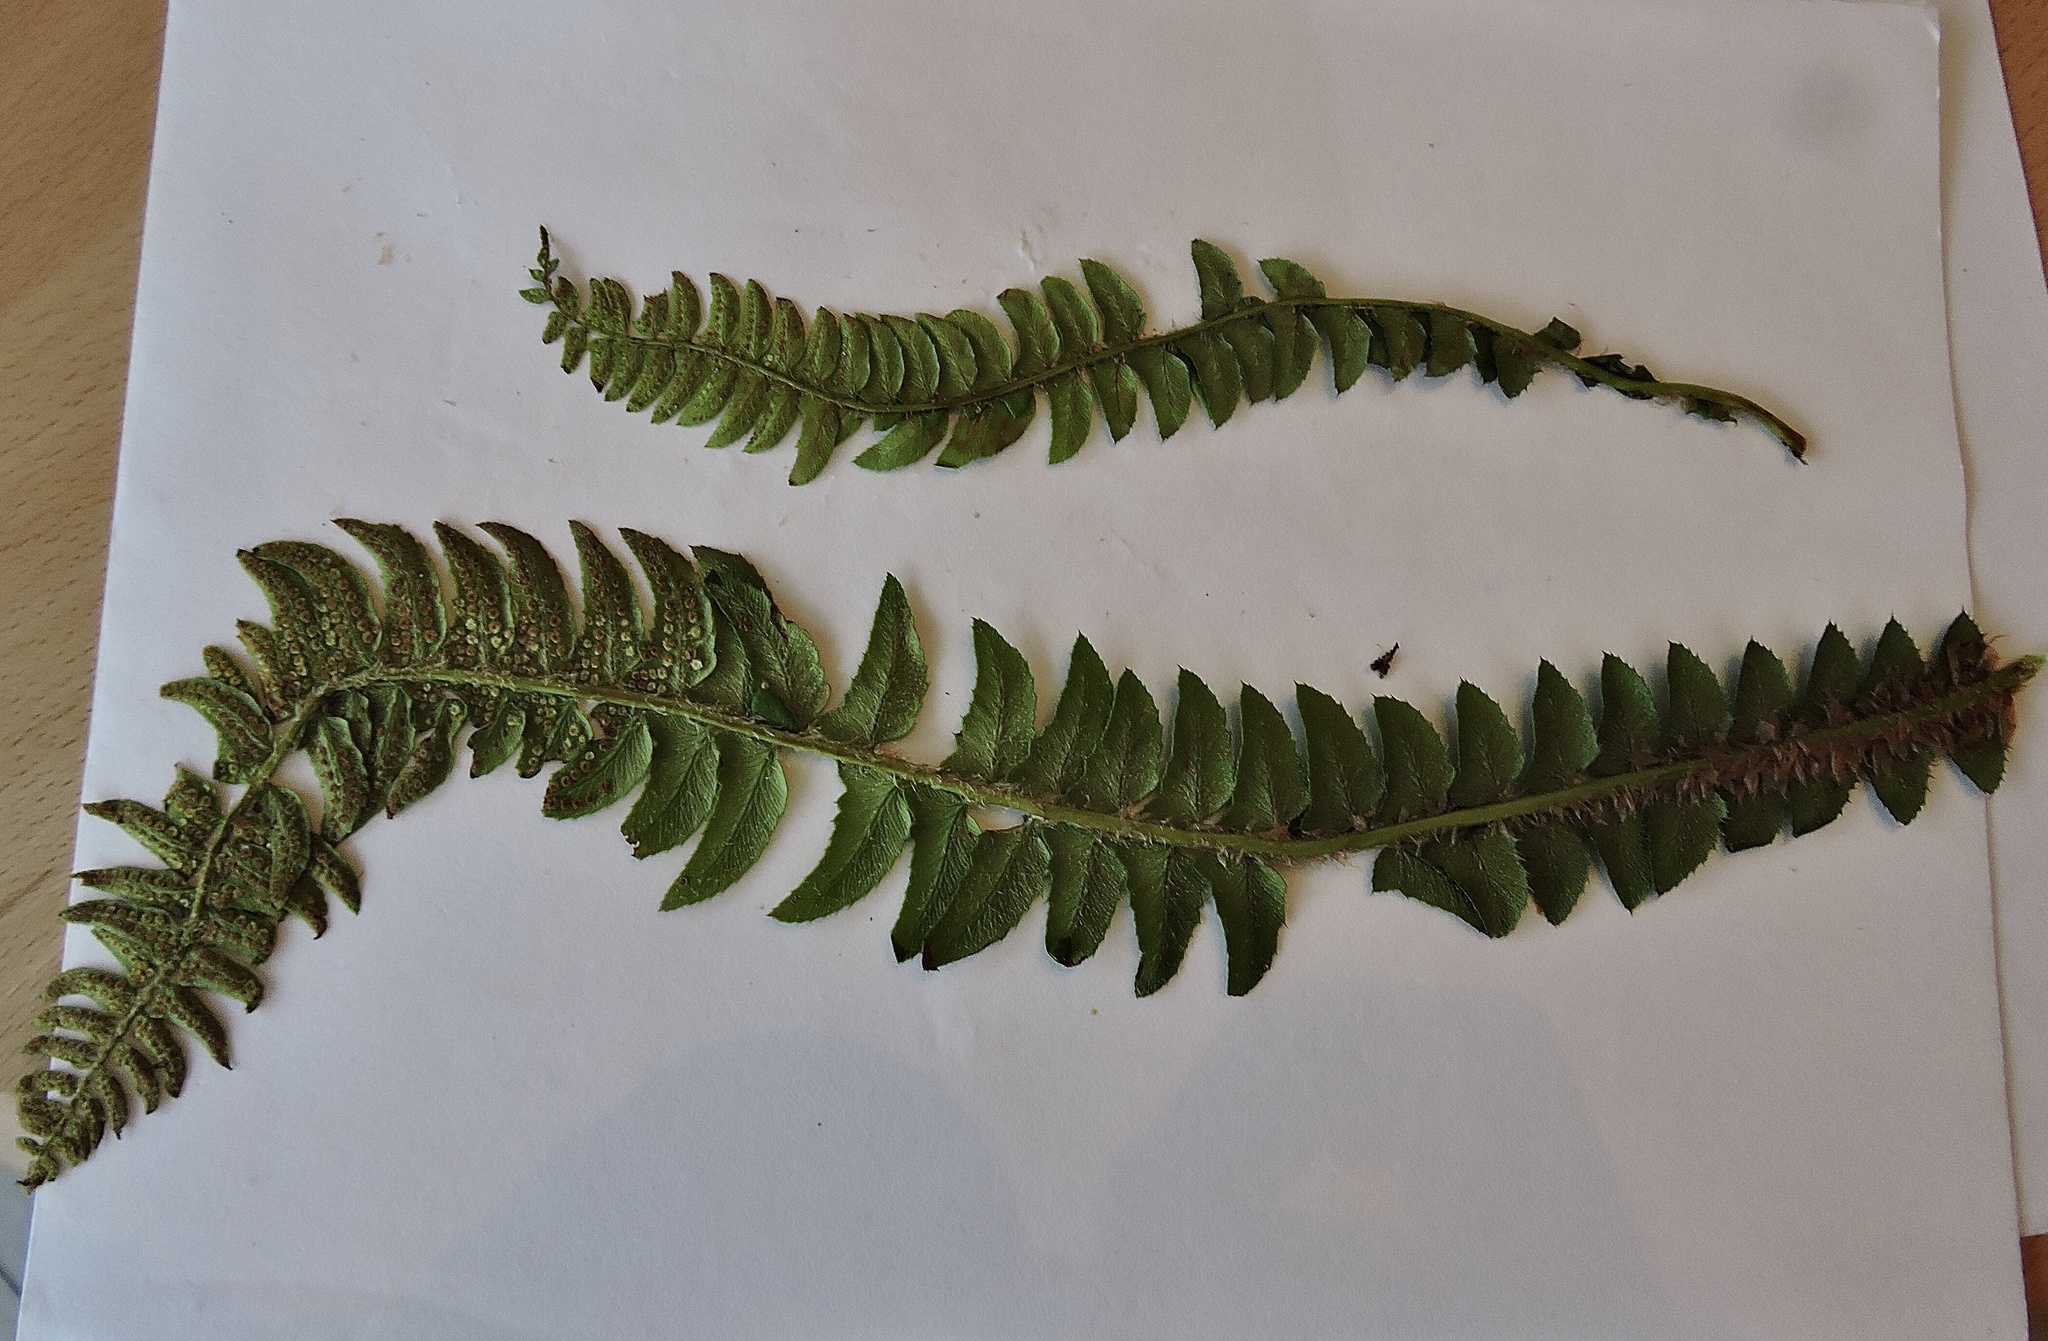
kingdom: Plantae
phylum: Tracheophyta
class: Polypodiopsida
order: Polypodiales
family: Dryopteridaceae
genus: Polystichum
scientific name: Polystichum lonchitis
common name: Holly fern
